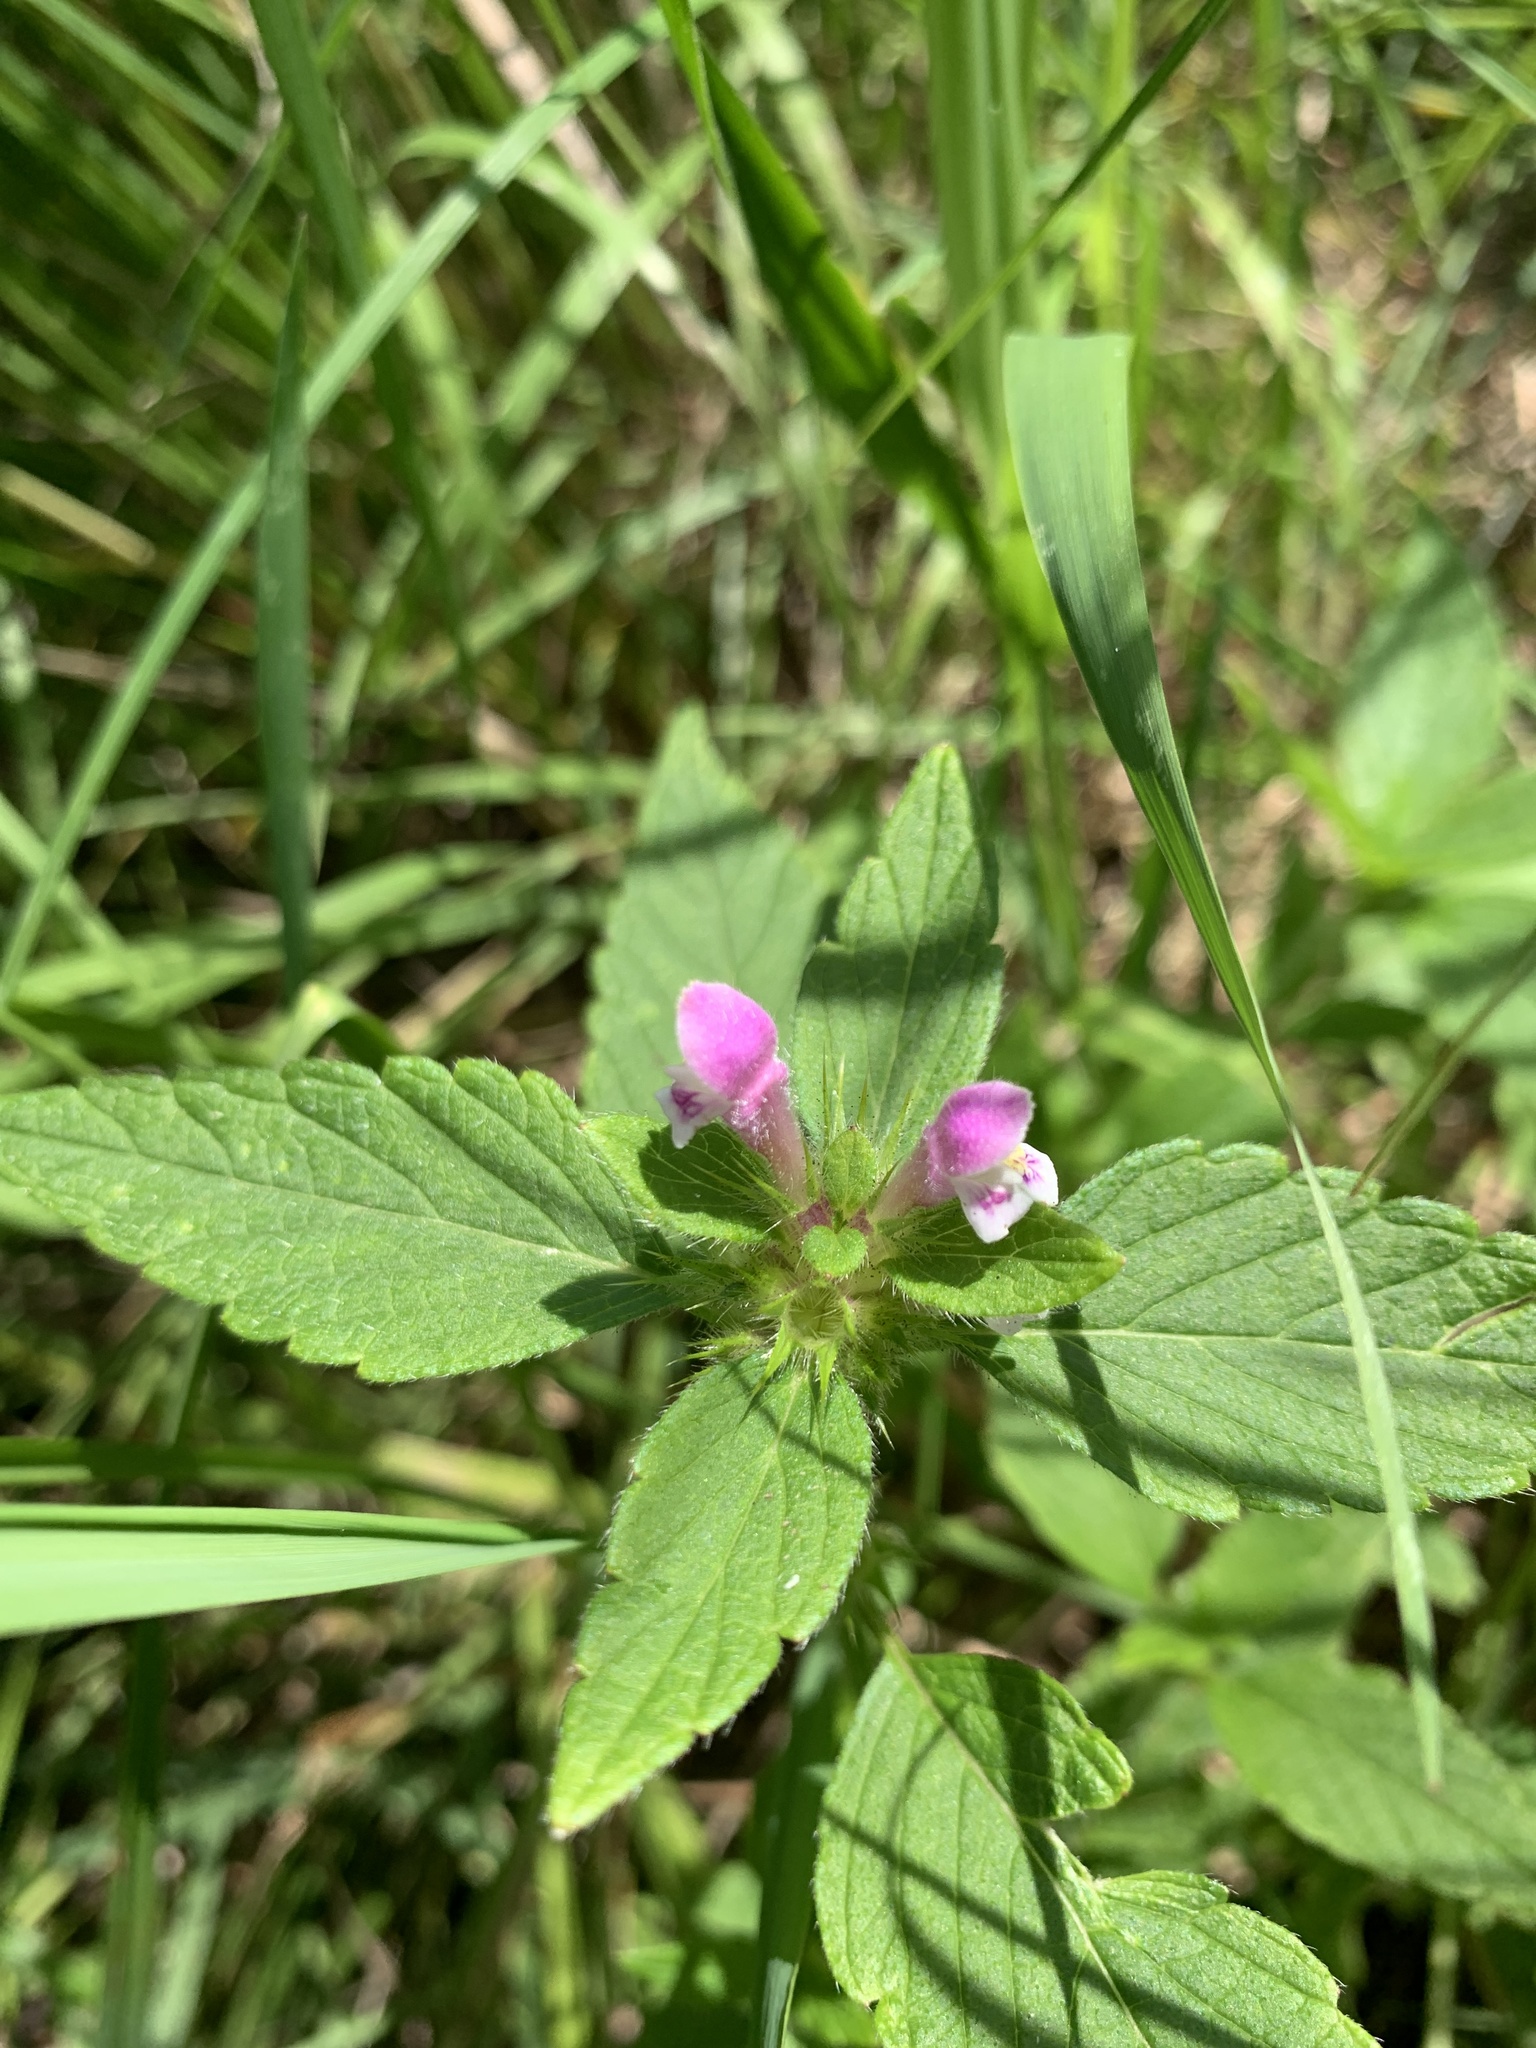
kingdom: Plantae
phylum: Tracheophyta
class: Magnoliopsida
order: Lamiales
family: Lamiaceae
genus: Galeopsis
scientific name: Galeopsis tetrahit
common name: Common hemp-nettle
